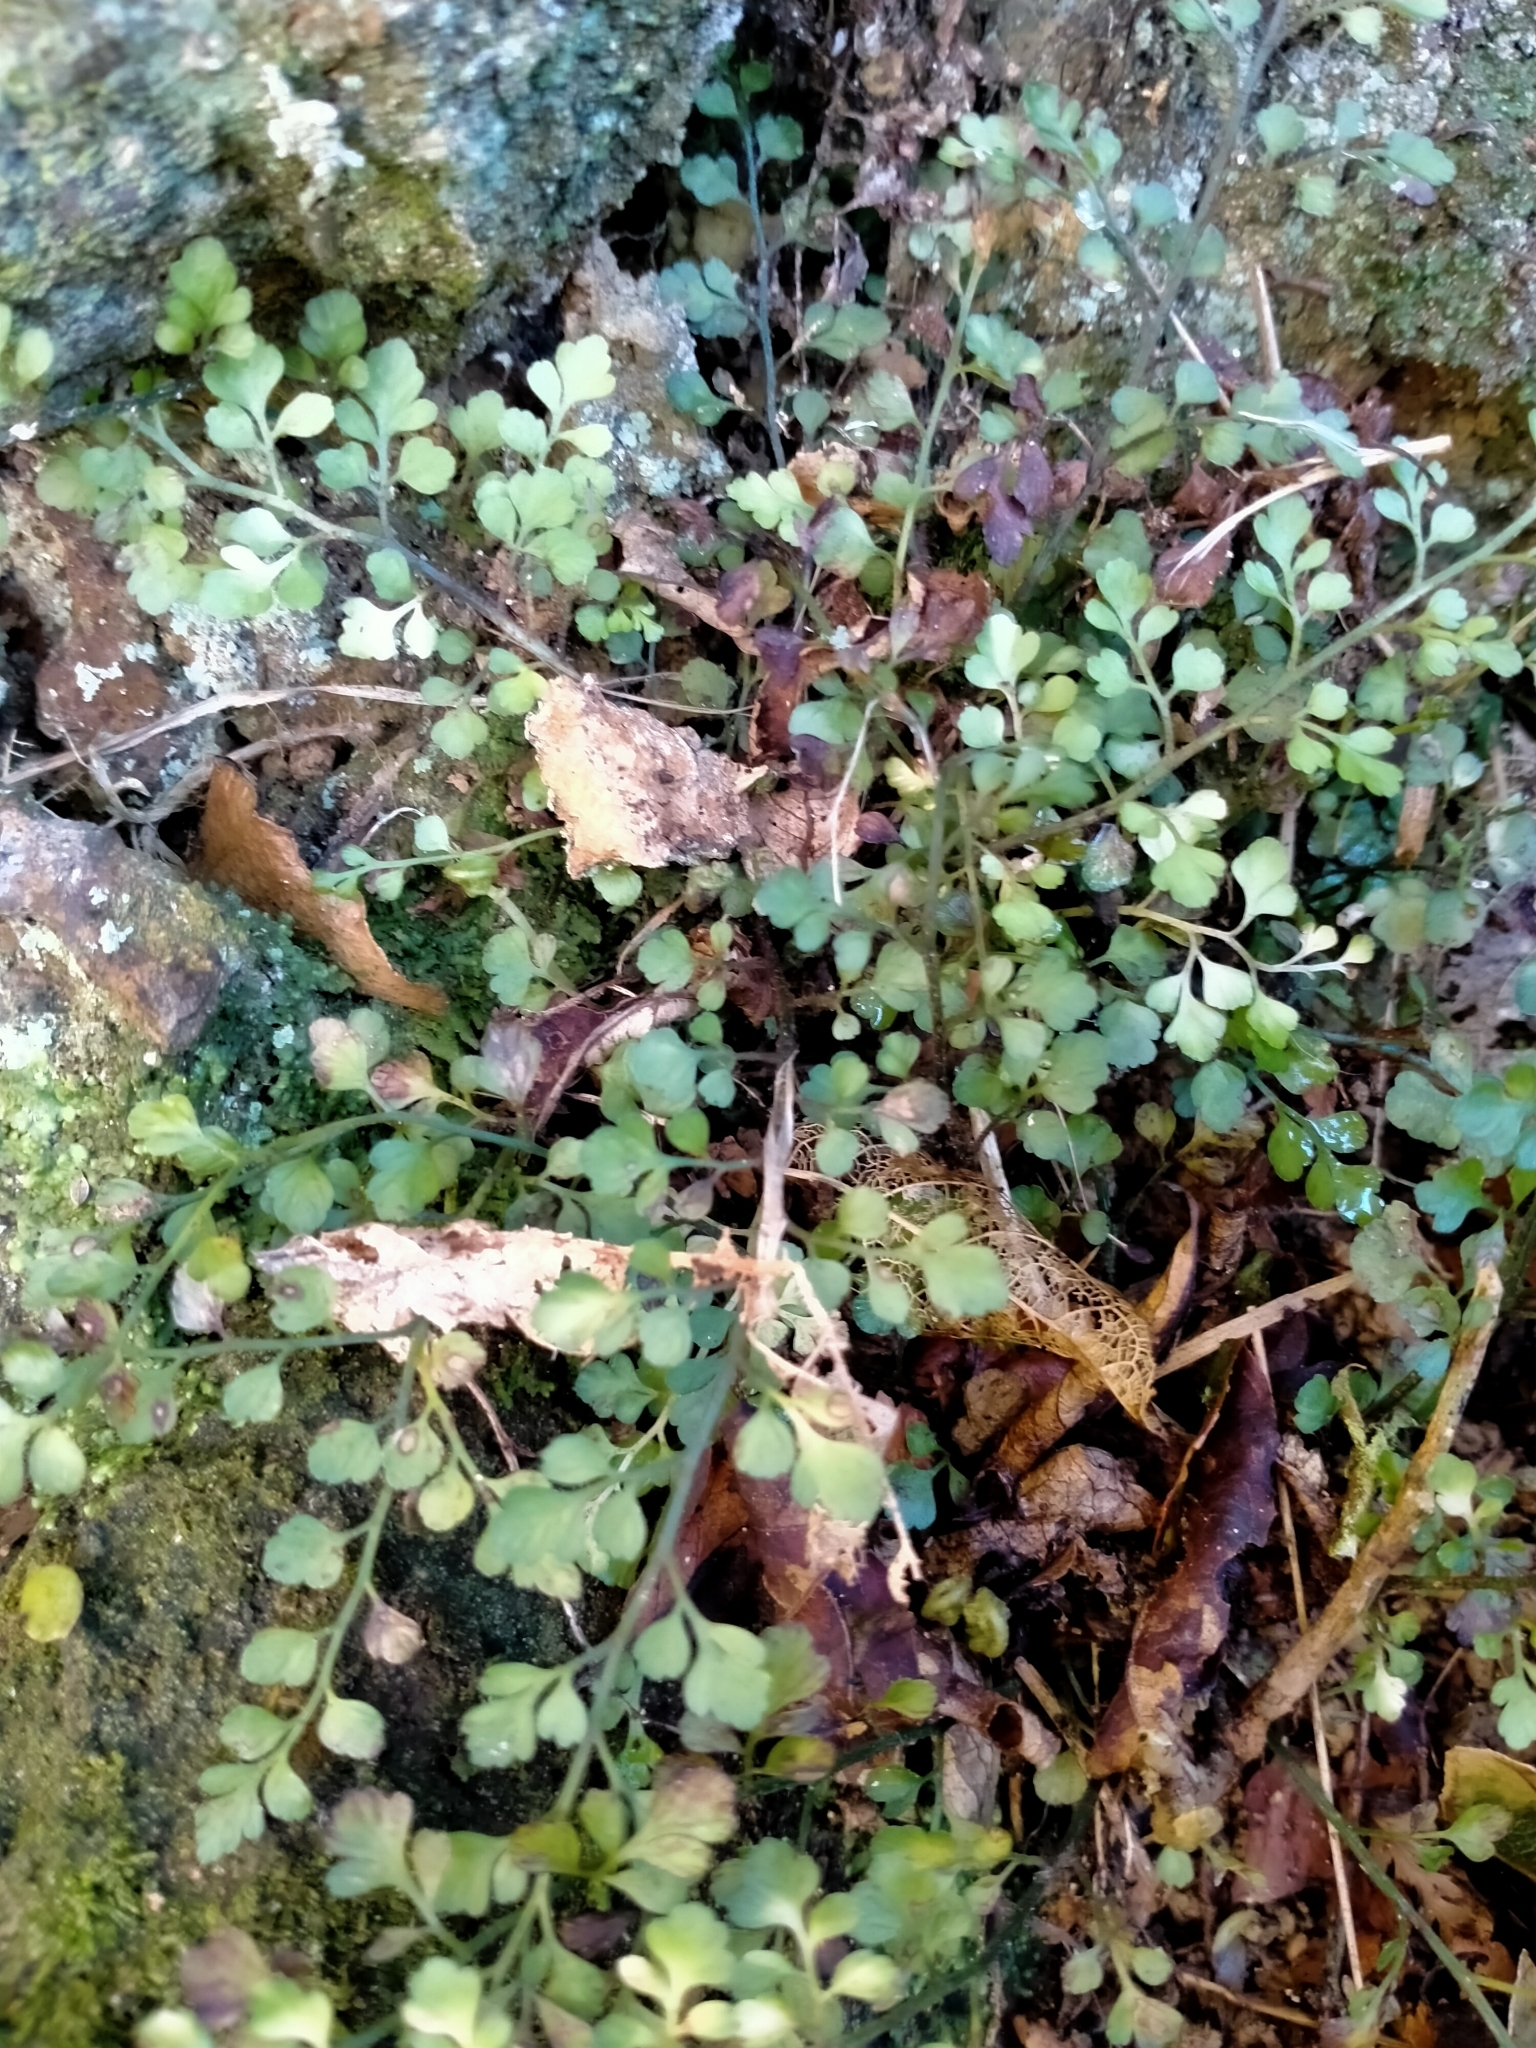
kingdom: Plantae
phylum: Tracheophyta
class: Polypodiopsida
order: Polypodiales
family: Aspleniaceae
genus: Asplenium
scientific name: Asplenium hookerianum
